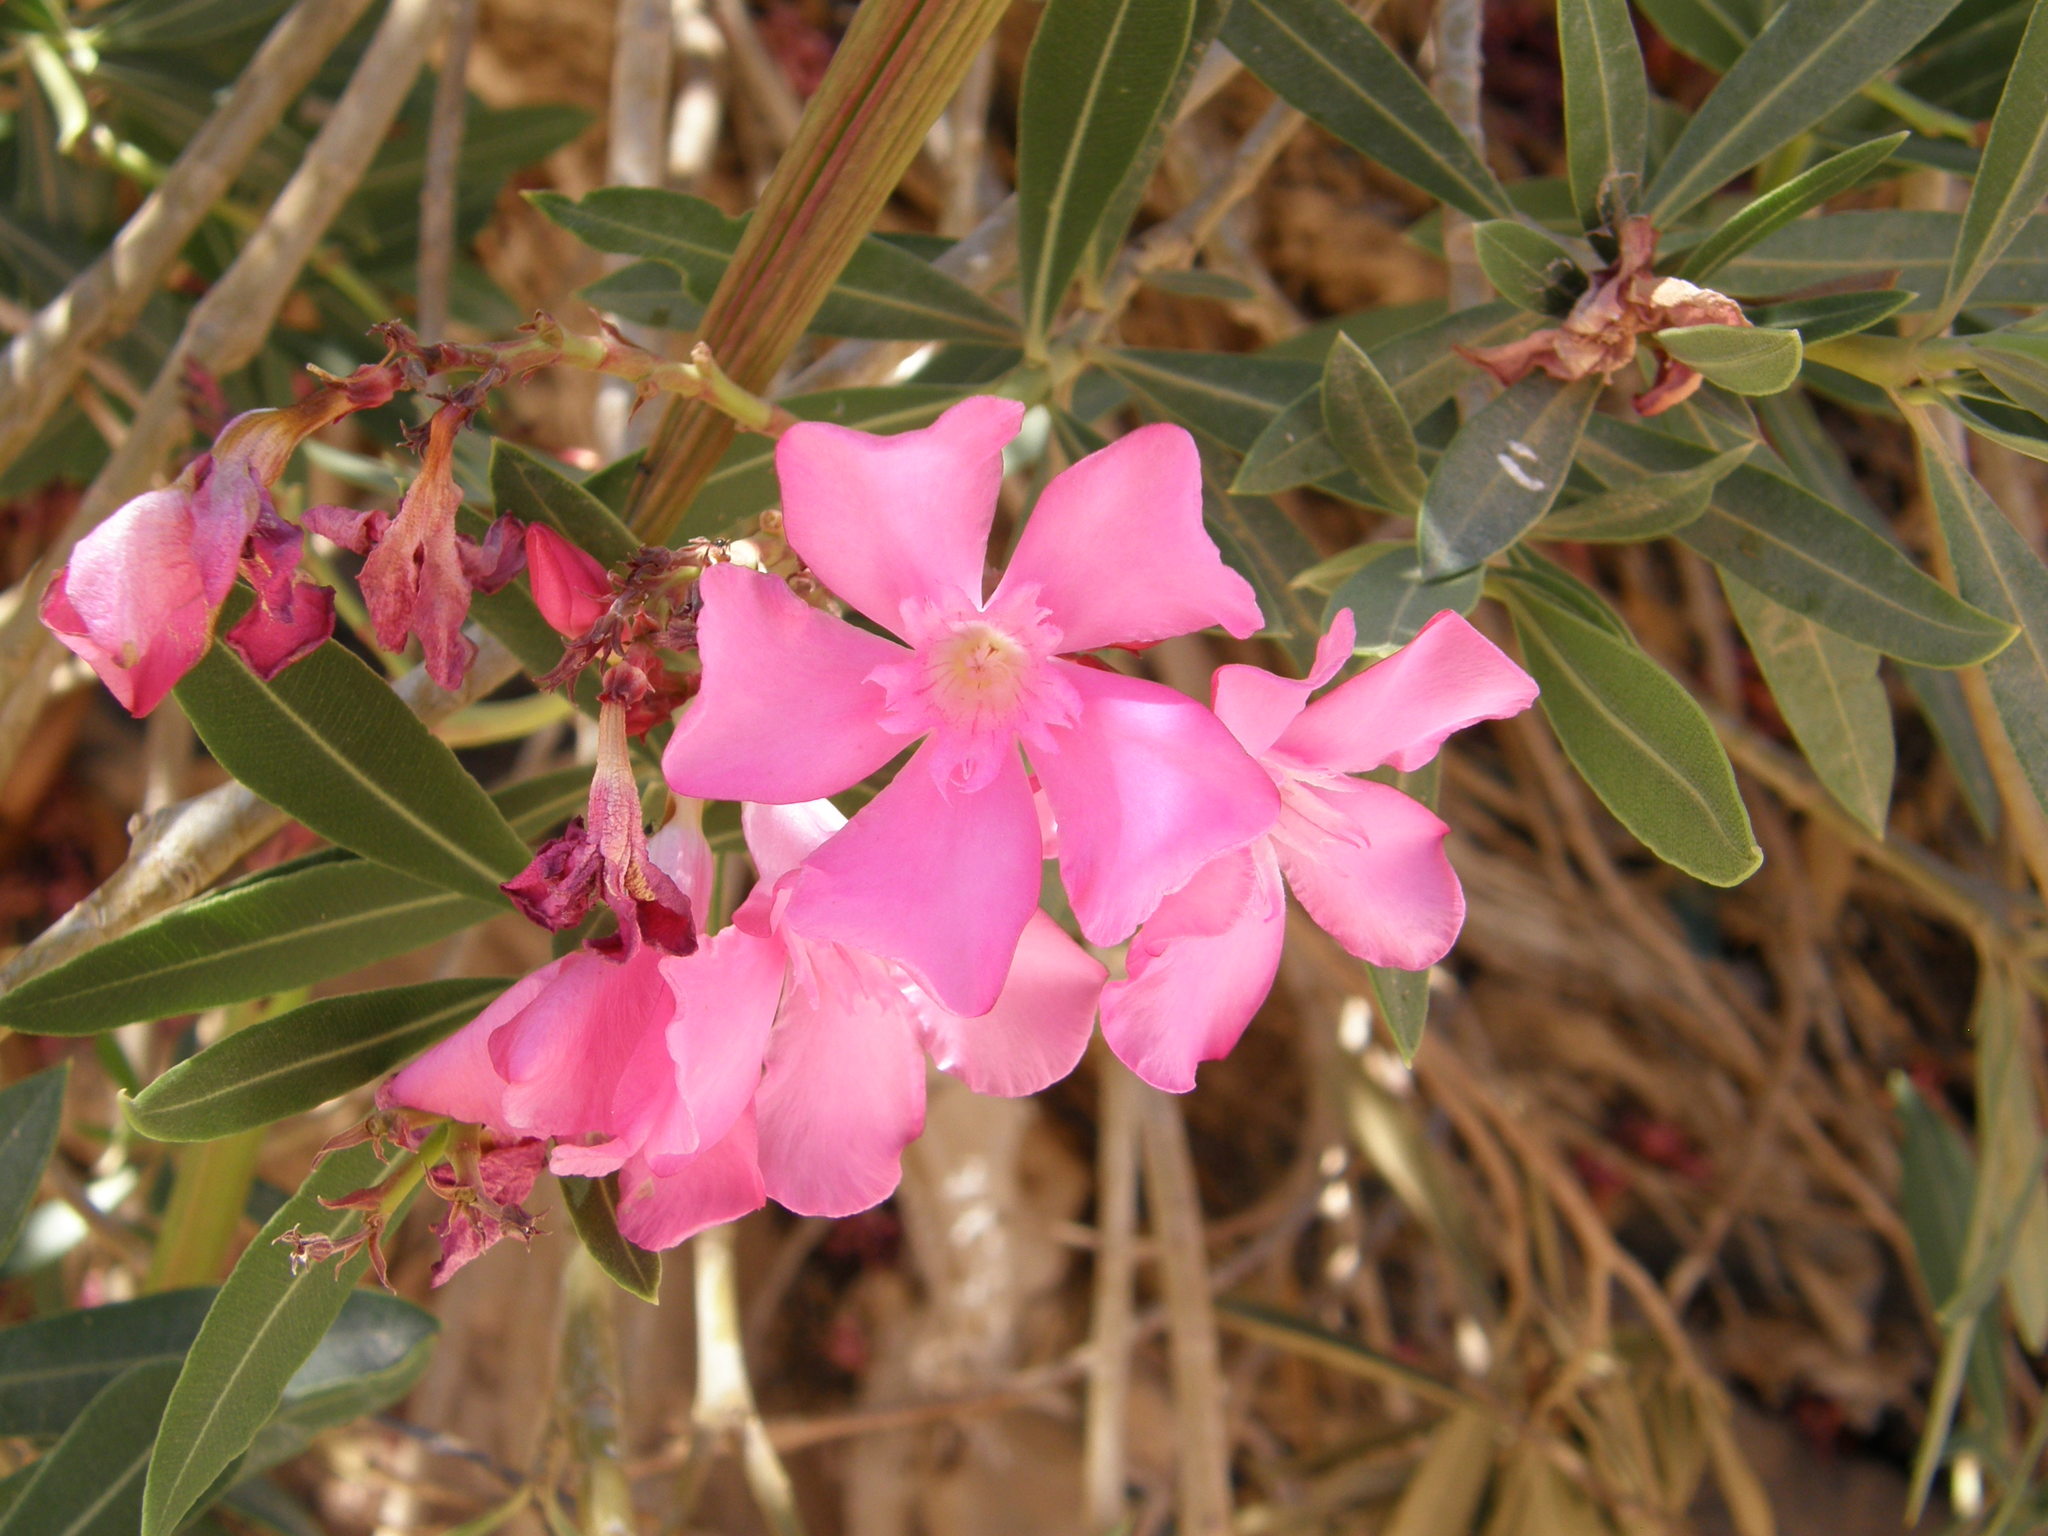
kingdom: Plantae
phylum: Tracheophyta
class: Magnoliopsida
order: Gentianales
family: Apocynaceae
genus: Nerium
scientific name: Nerium oleander
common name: Oleander
